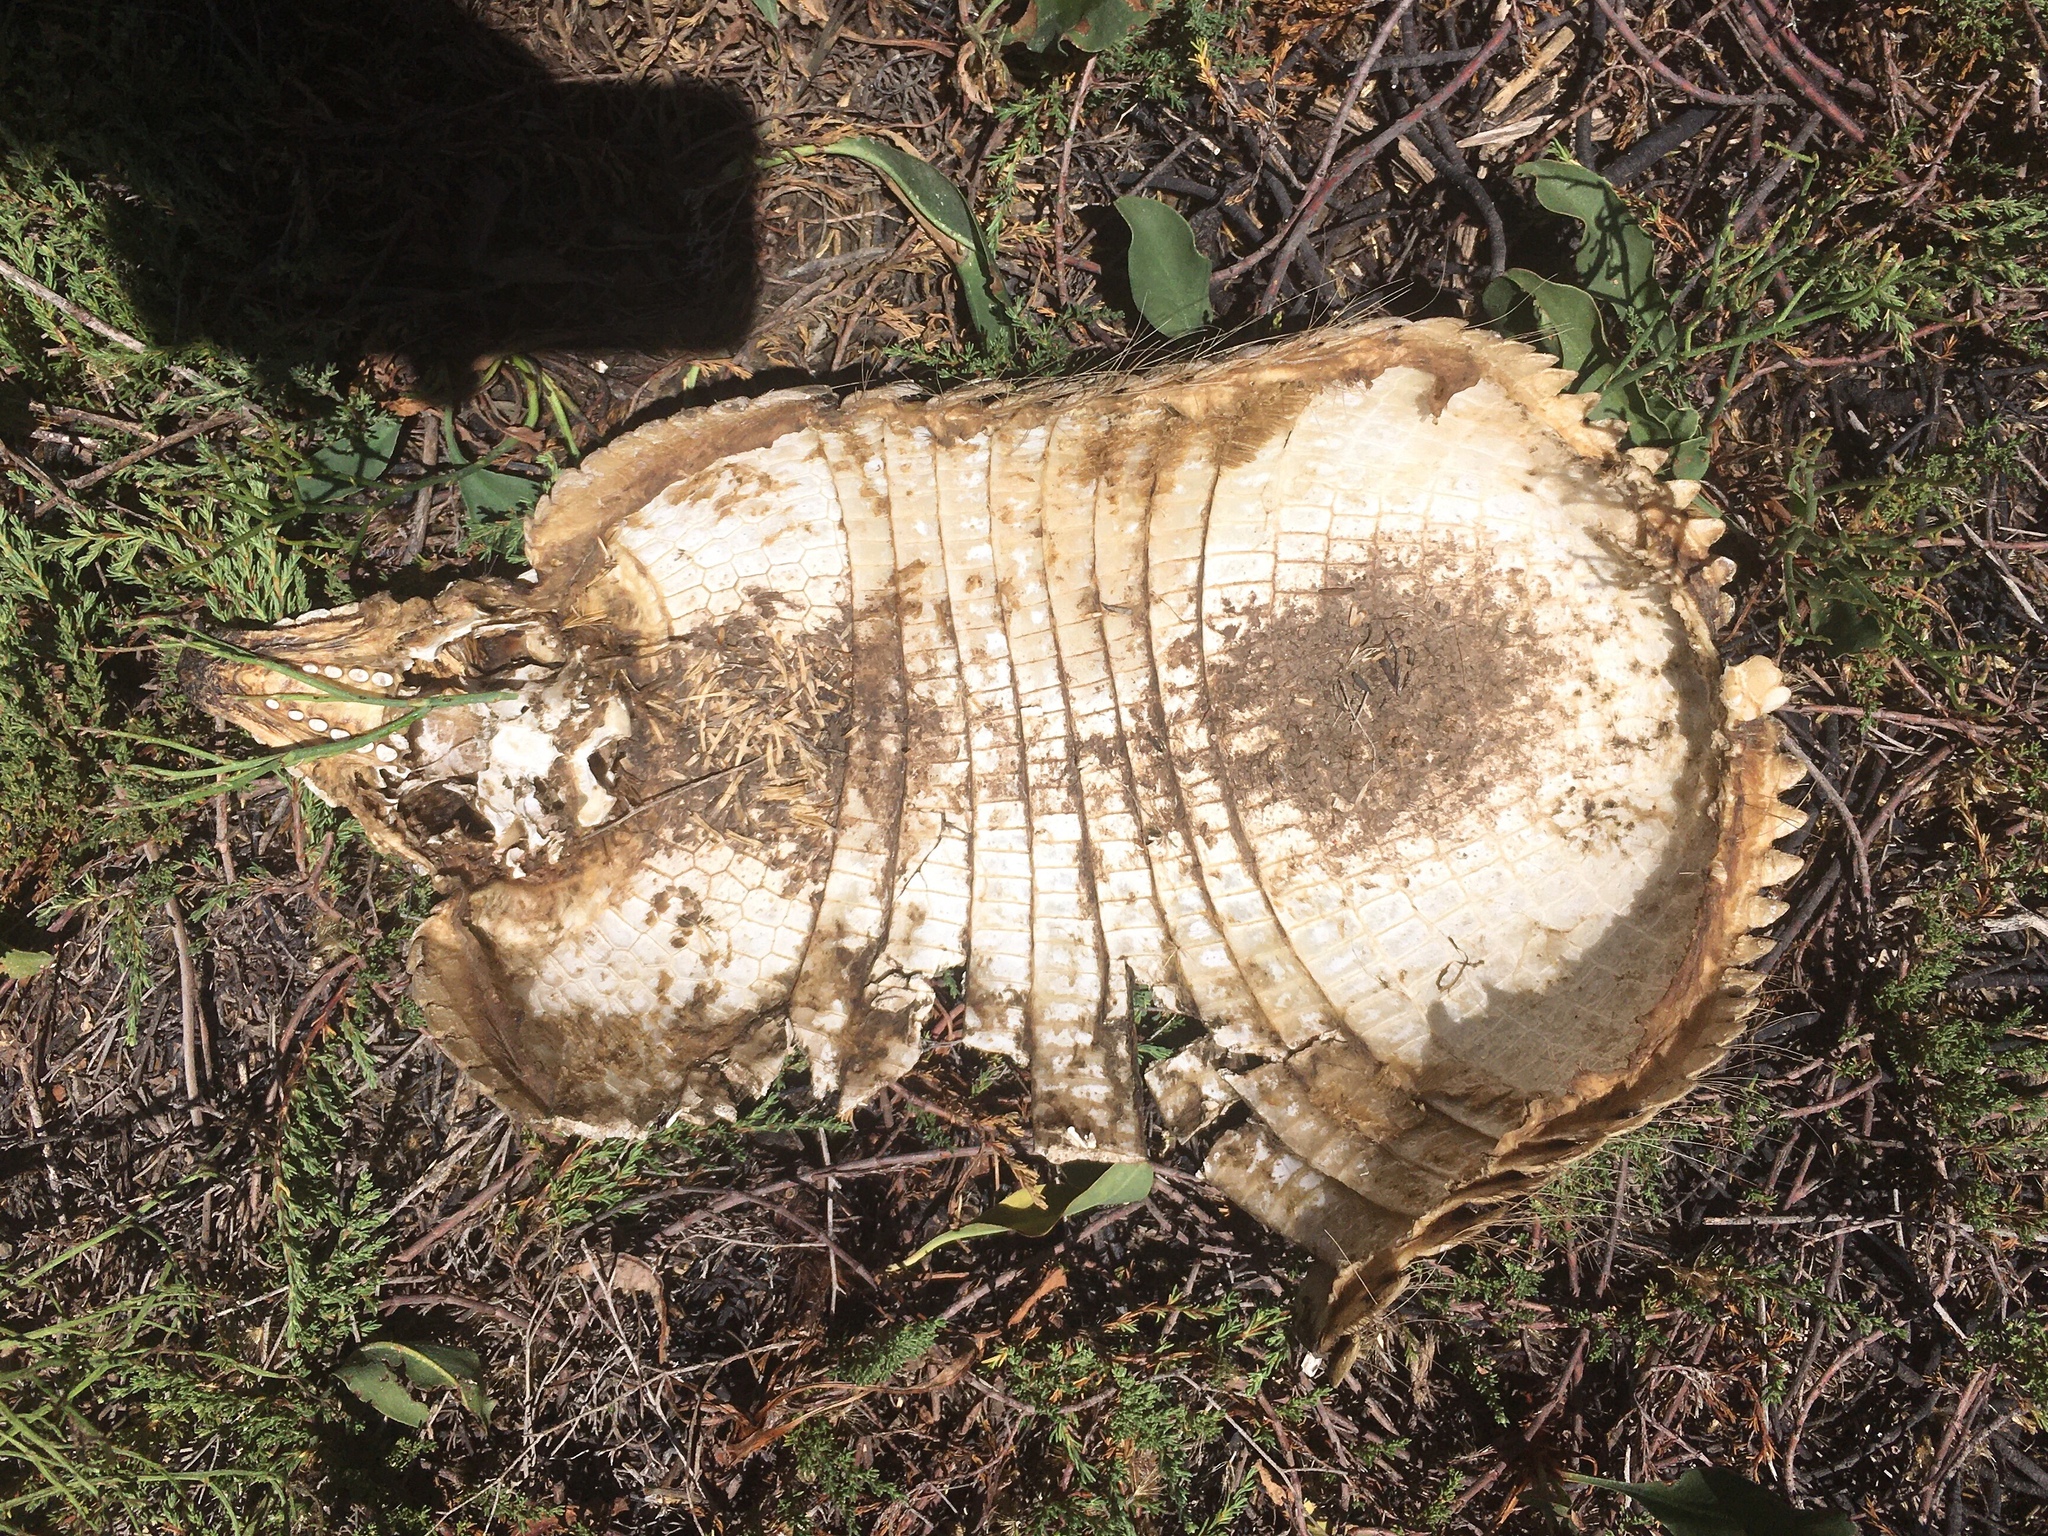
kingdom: Animalia
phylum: Chordata
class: Mammalia
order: Cingulata
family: Dasypodidae
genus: Chaetophractus
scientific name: Chaetophractus villosus
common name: Big hairy armadillo
